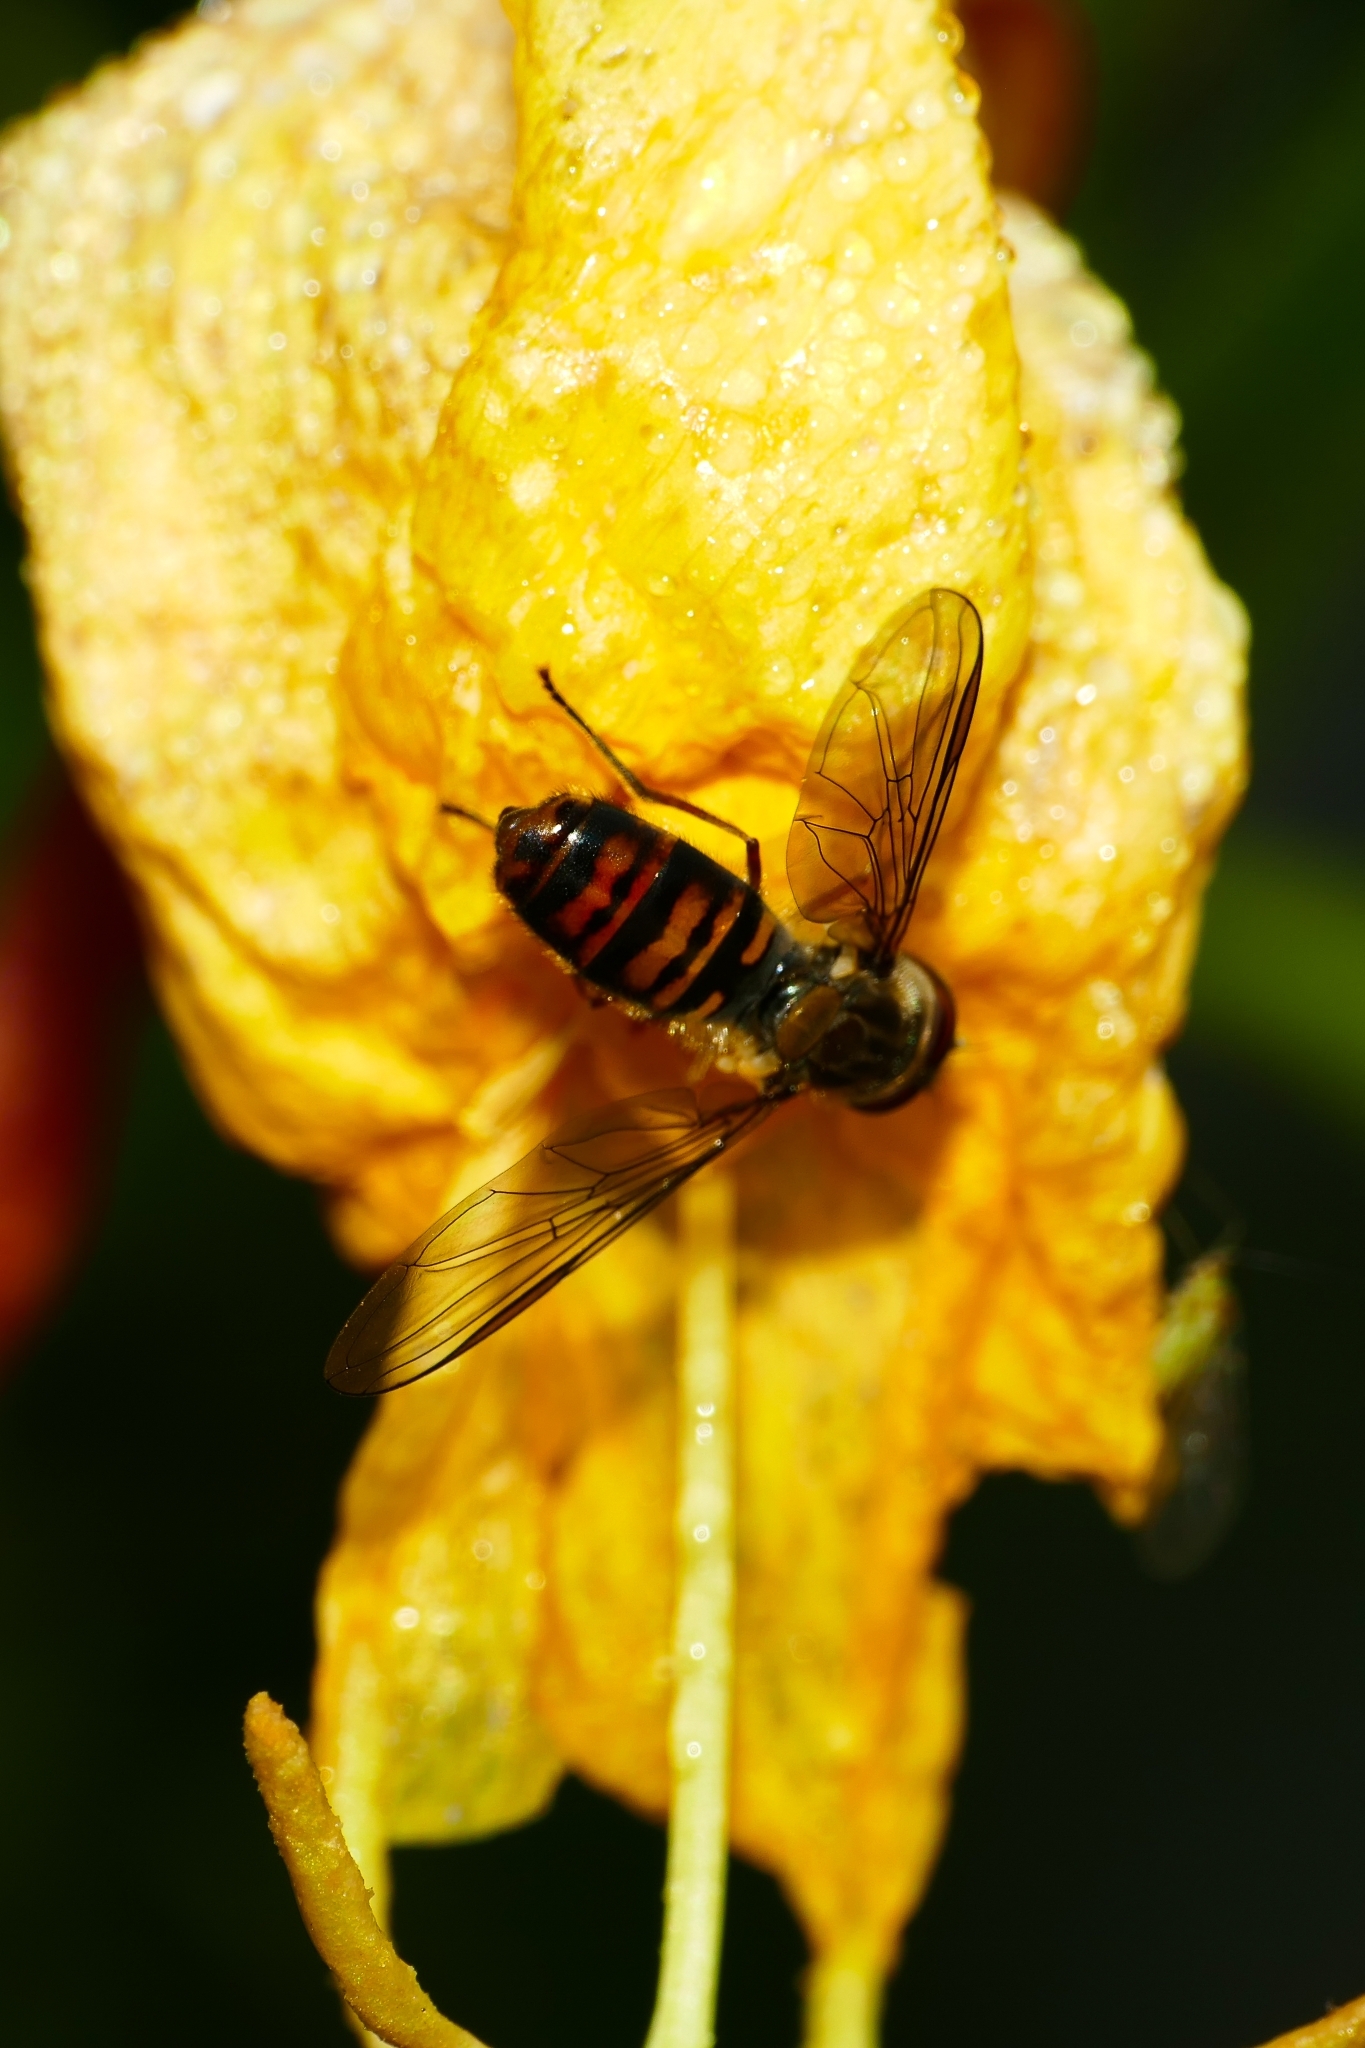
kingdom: Animalia
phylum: Arthropoda
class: Insecta
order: Diptera
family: Syrphidae
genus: Episyrphus
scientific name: Episyrphus balteatus
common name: Marmalade hoverfly
